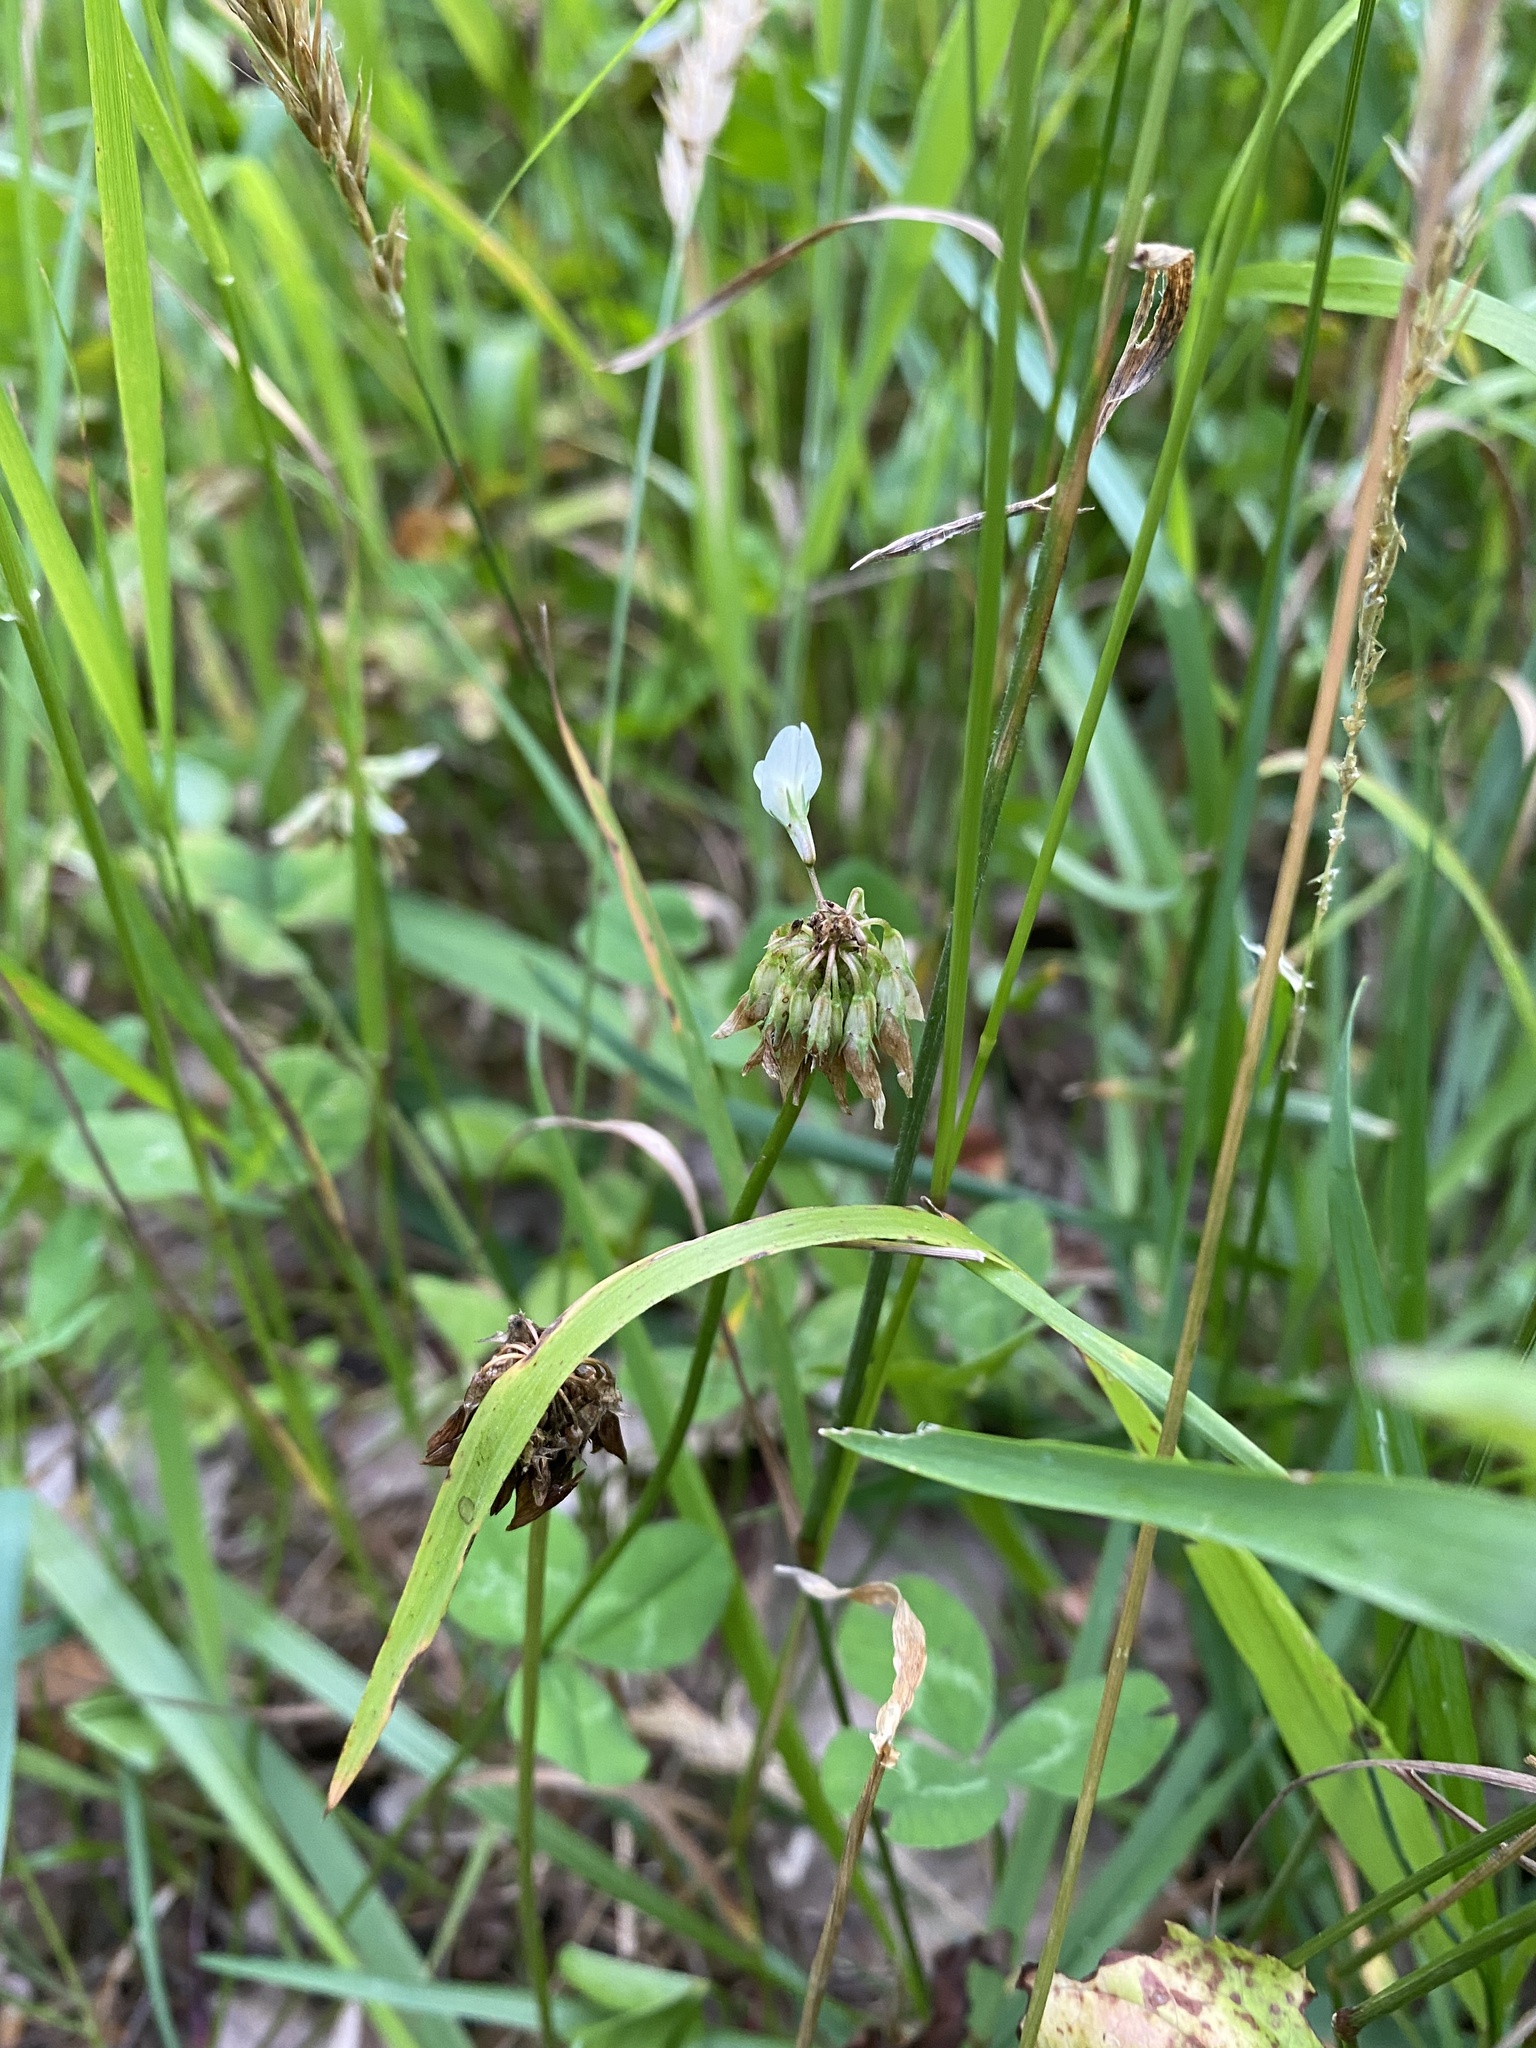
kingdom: Plantae
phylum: Tracheophyta
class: Magnoliopsida
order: Fabales
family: Fabaceae
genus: Trifolium
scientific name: Trifolium repens
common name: White clover
